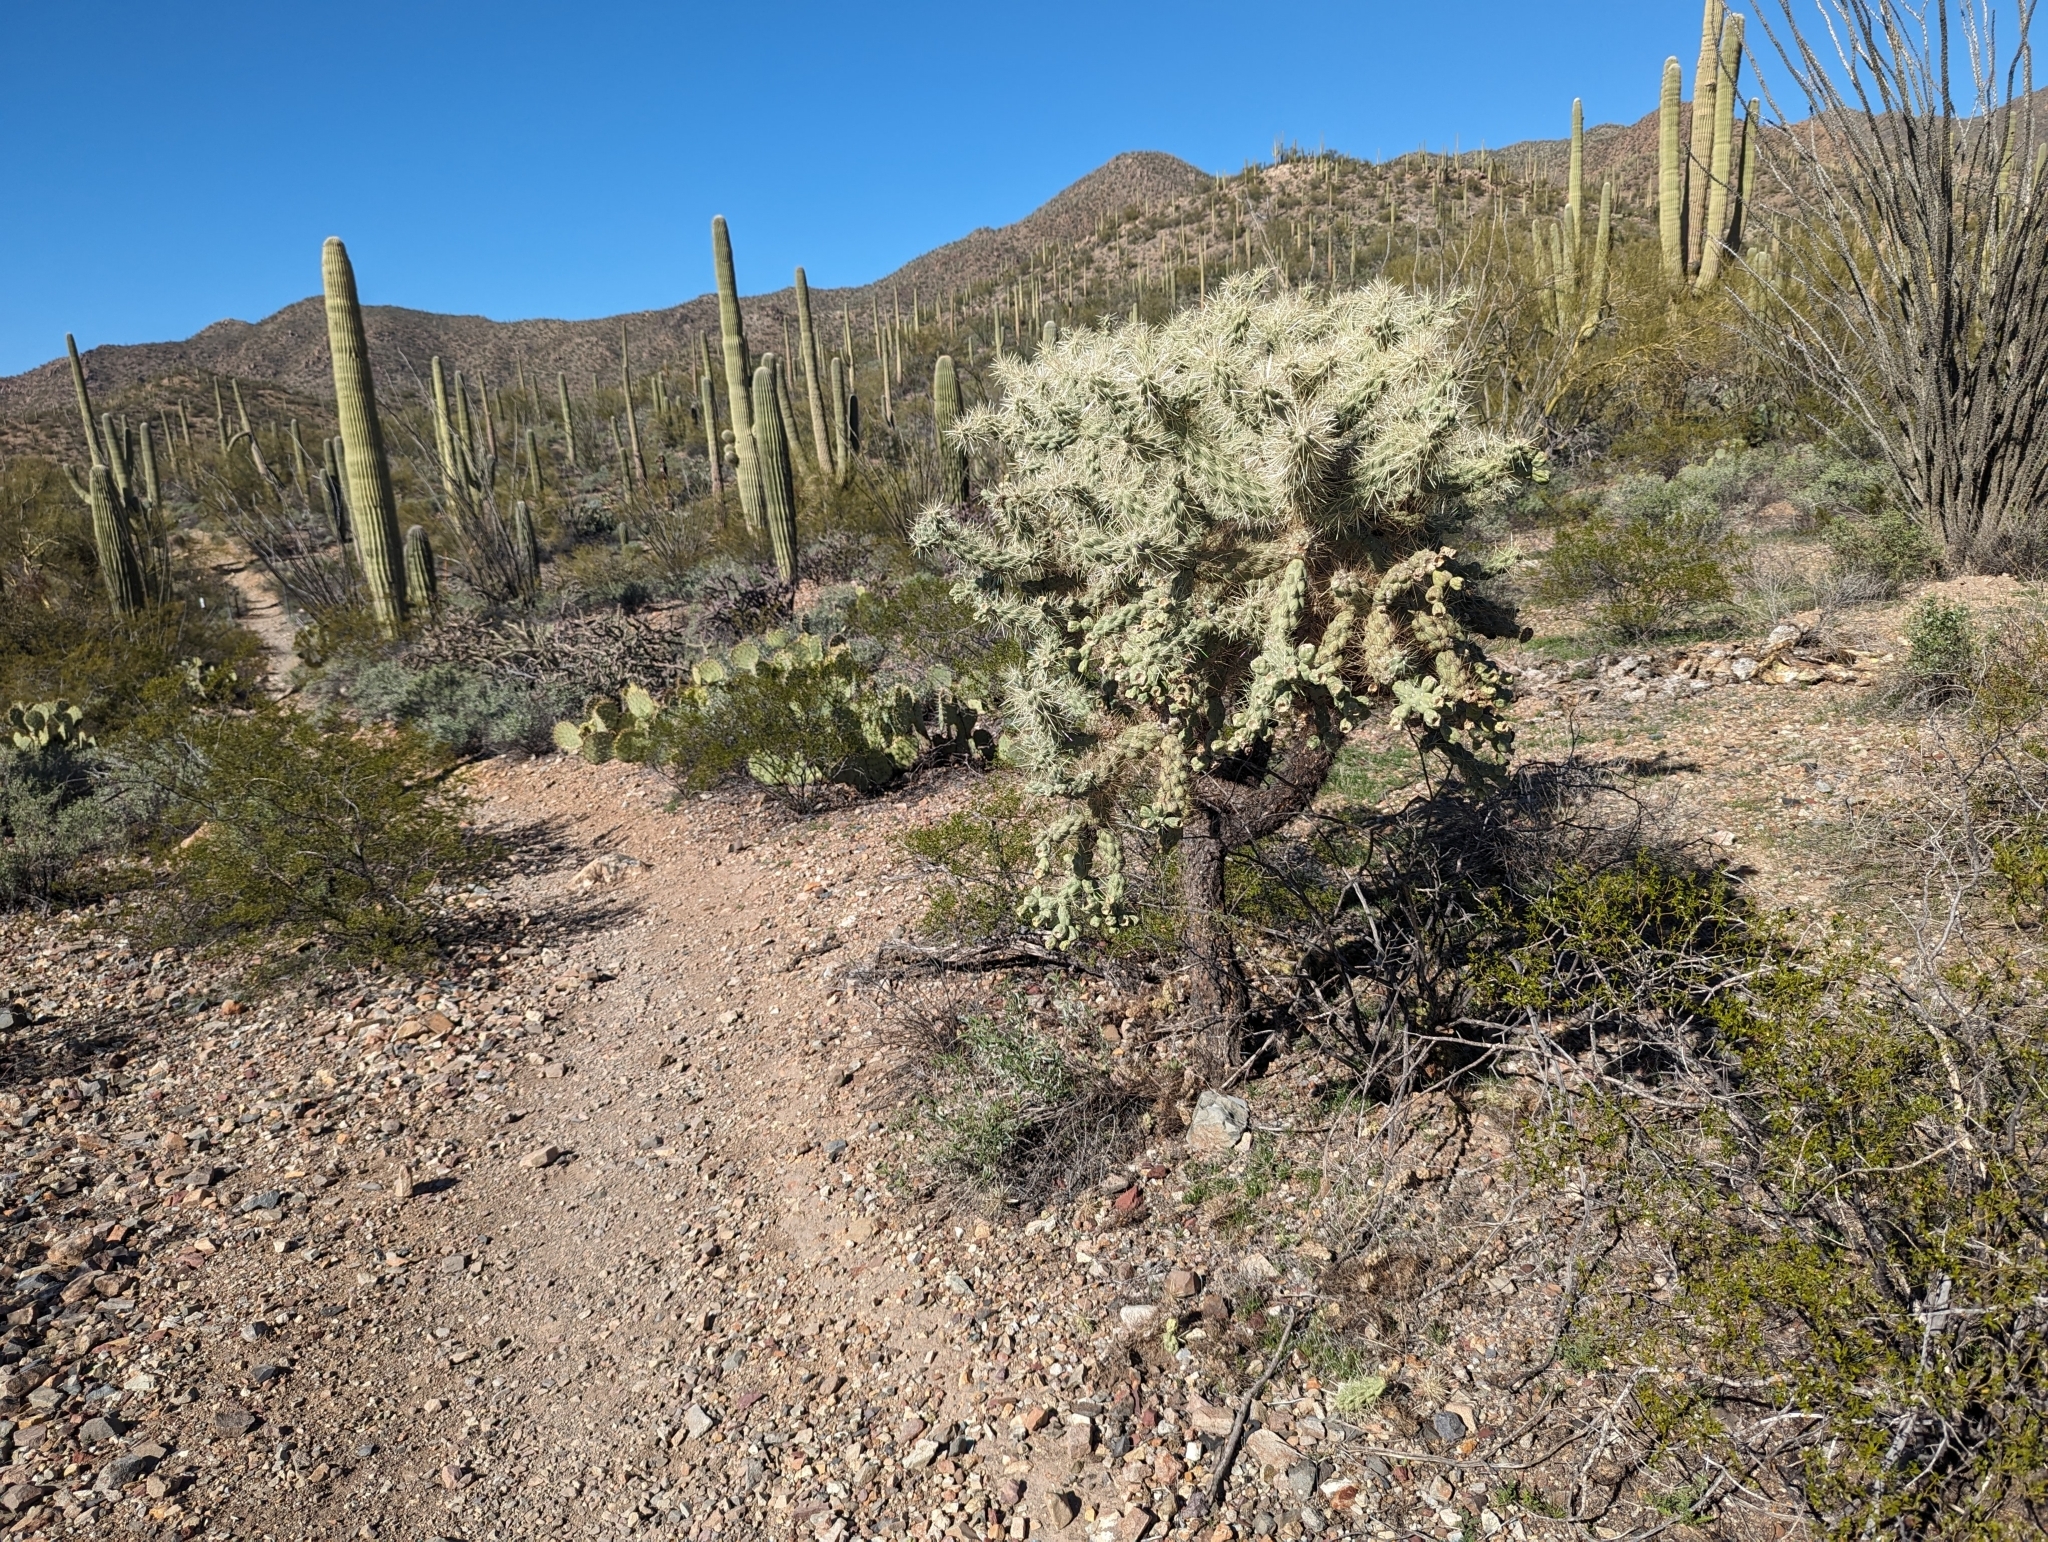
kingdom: Plantae
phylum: Tracheophyta
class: Magnoliopsida
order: Caryophyllales
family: Cactaceae
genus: Cylindropuntia
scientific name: Cylindropuntia fulgida
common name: Jumping cholla
